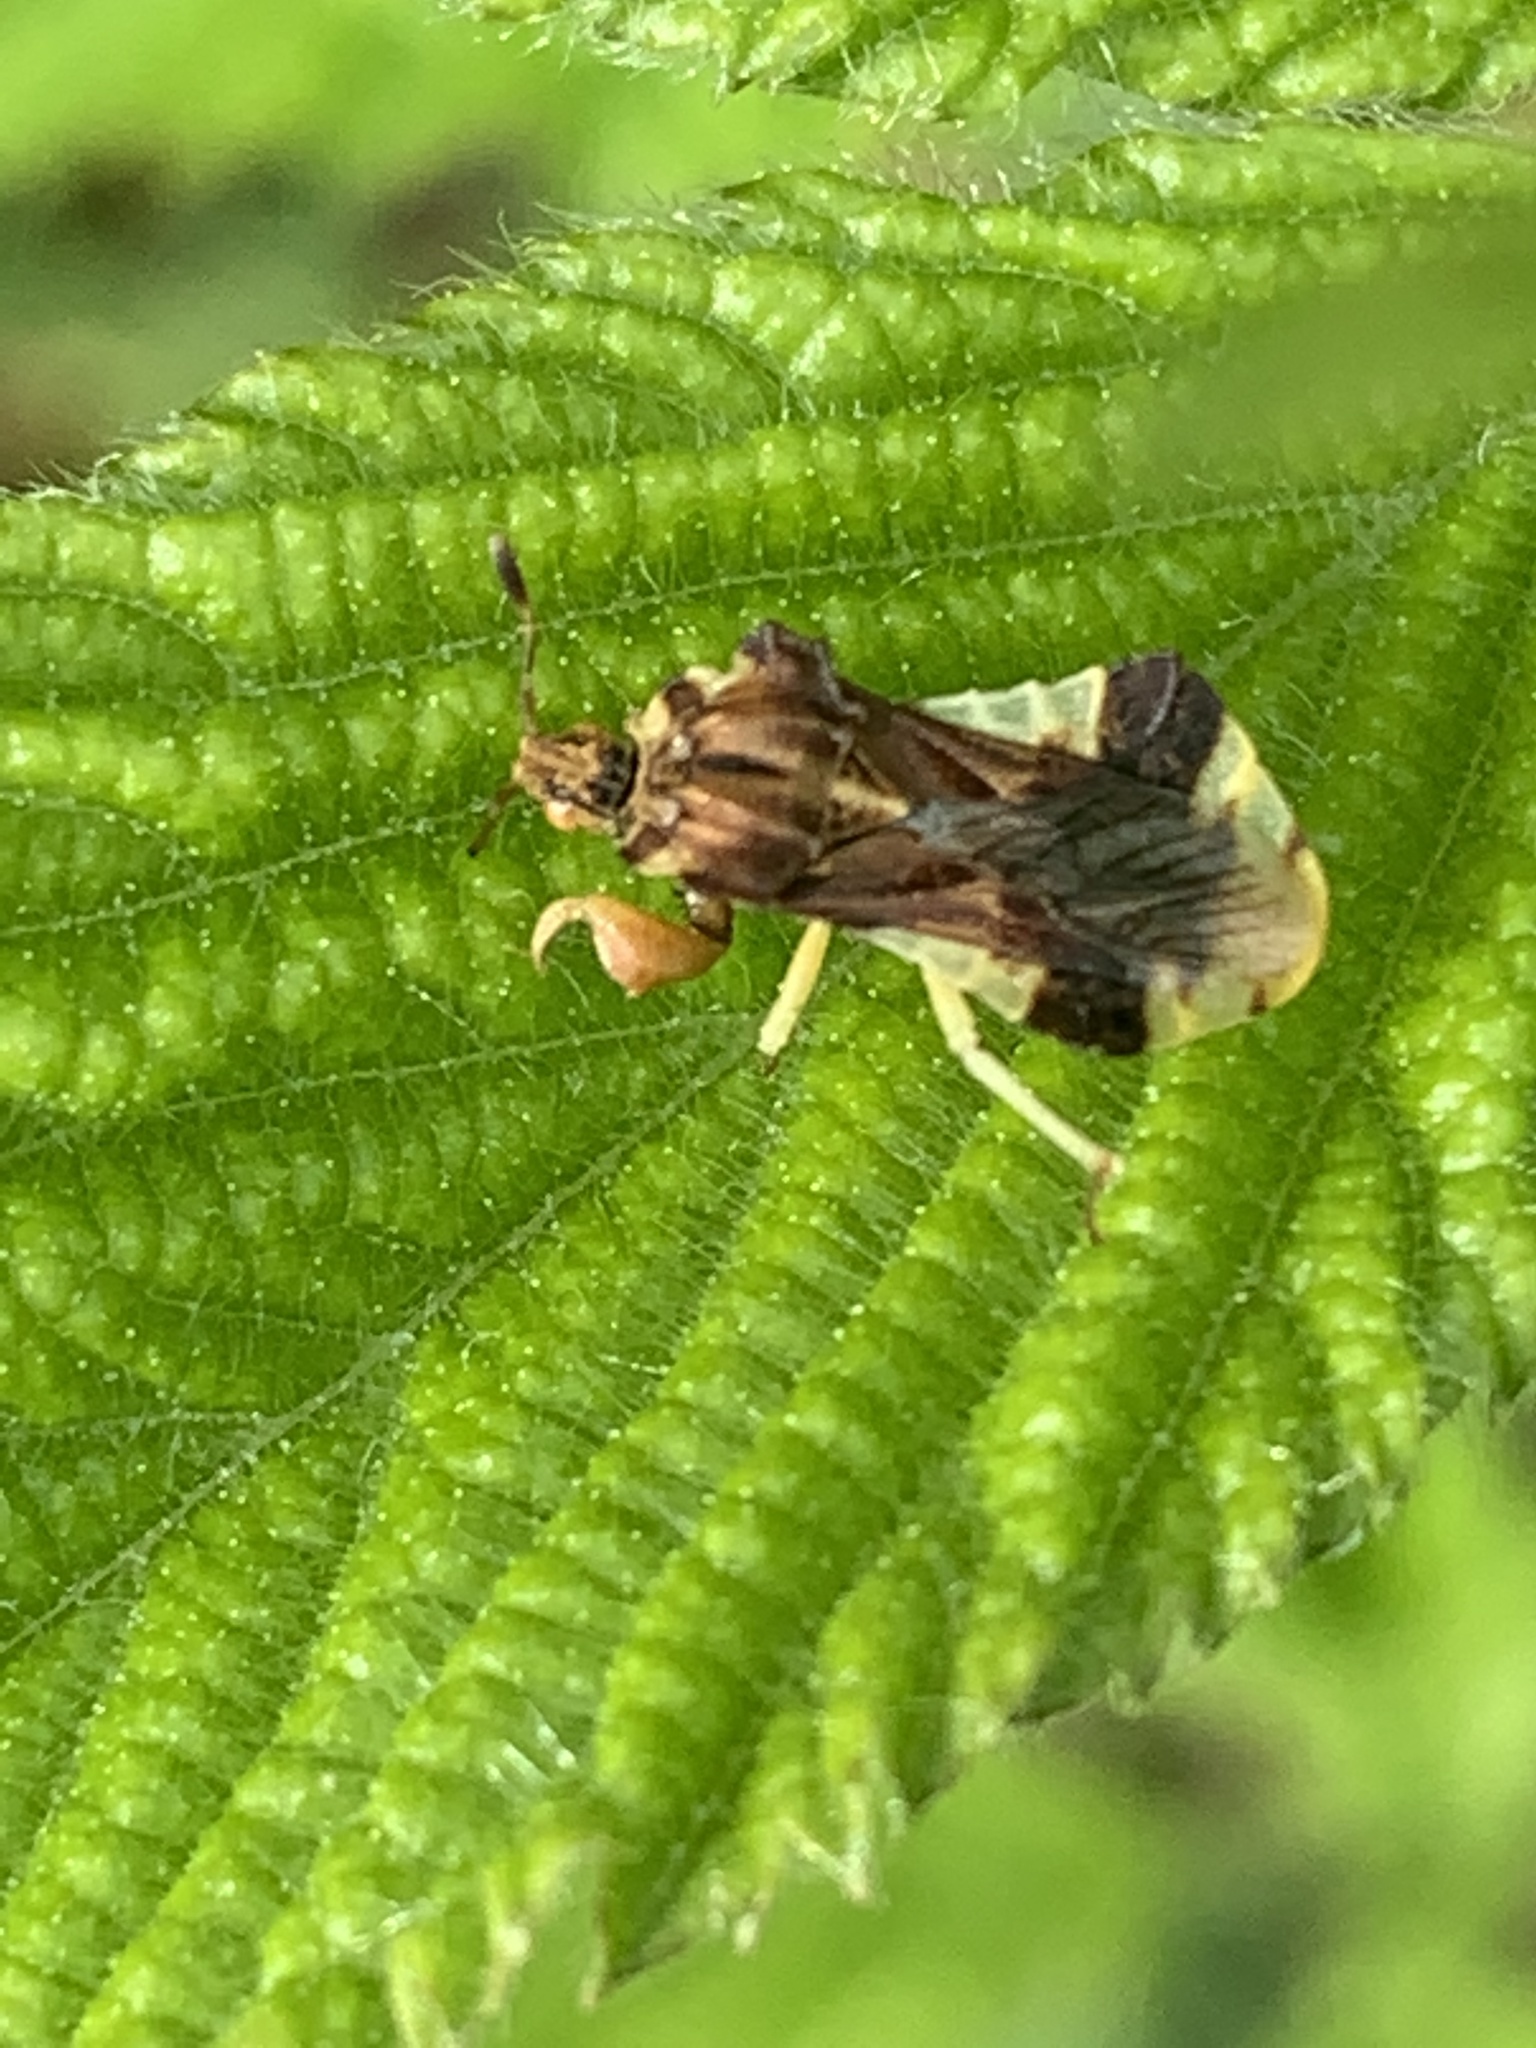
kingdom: Animalia
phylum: Arthropoda
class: Insecta
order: Hemiptera
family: Reduviidae
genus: Phymata
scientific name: Phymata fasciata
